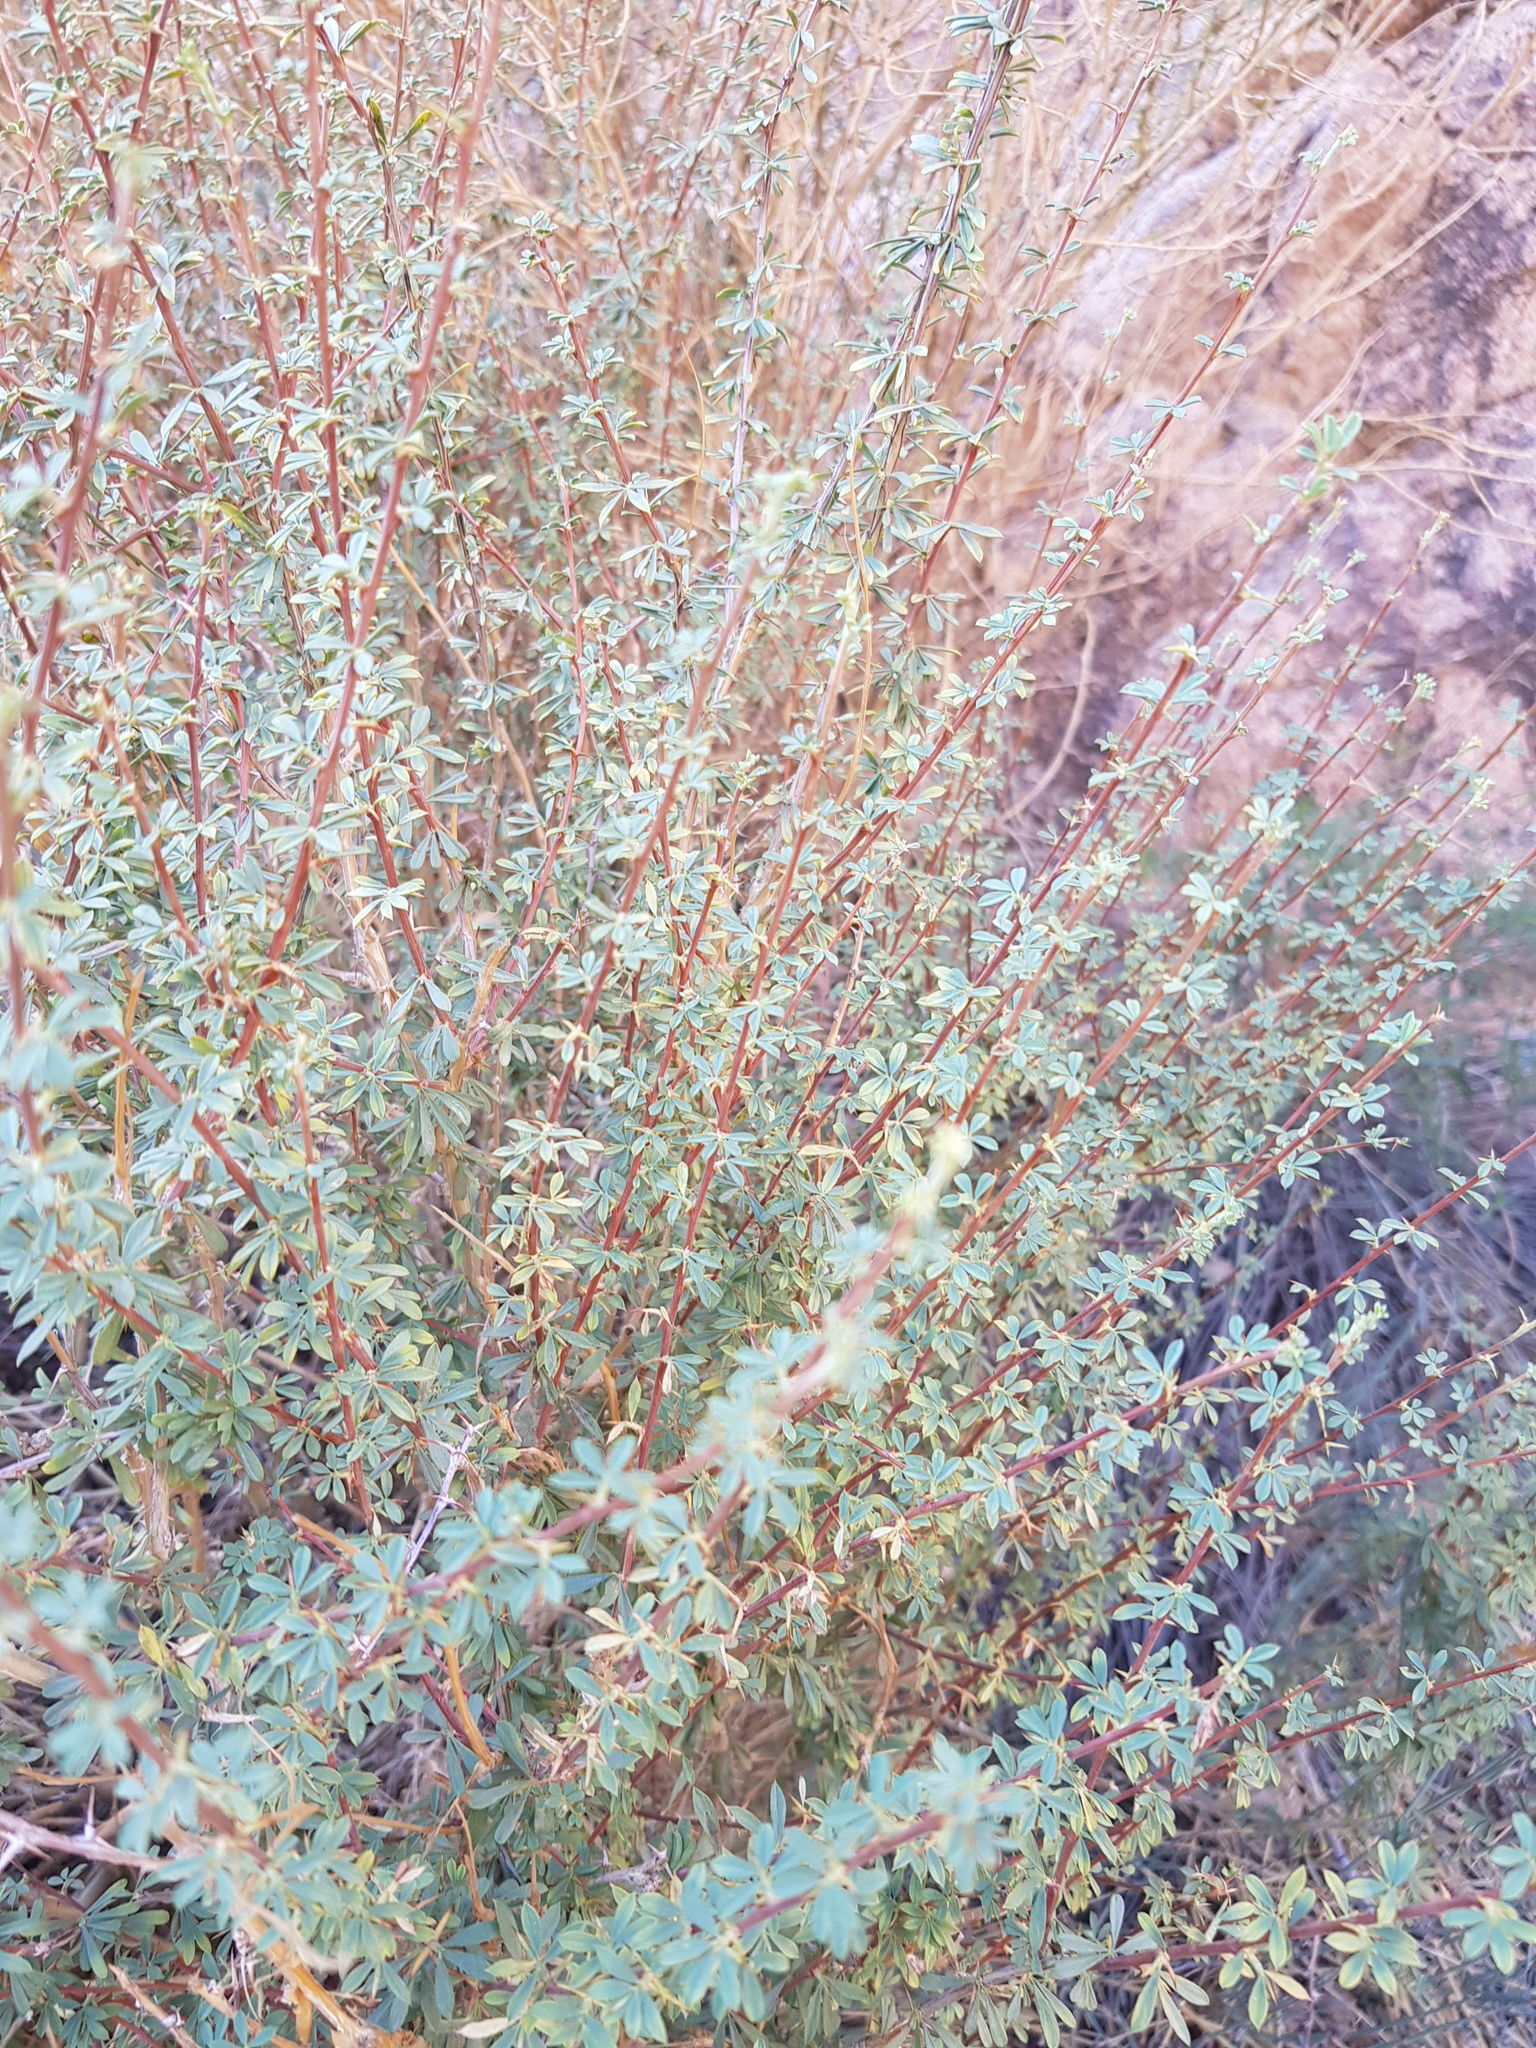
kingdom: Plantae
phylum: Tracheophyta
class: Magnoliopsida
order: Fabales
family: Fabaceae
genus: Caragana
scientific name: Caragana leucophloea
